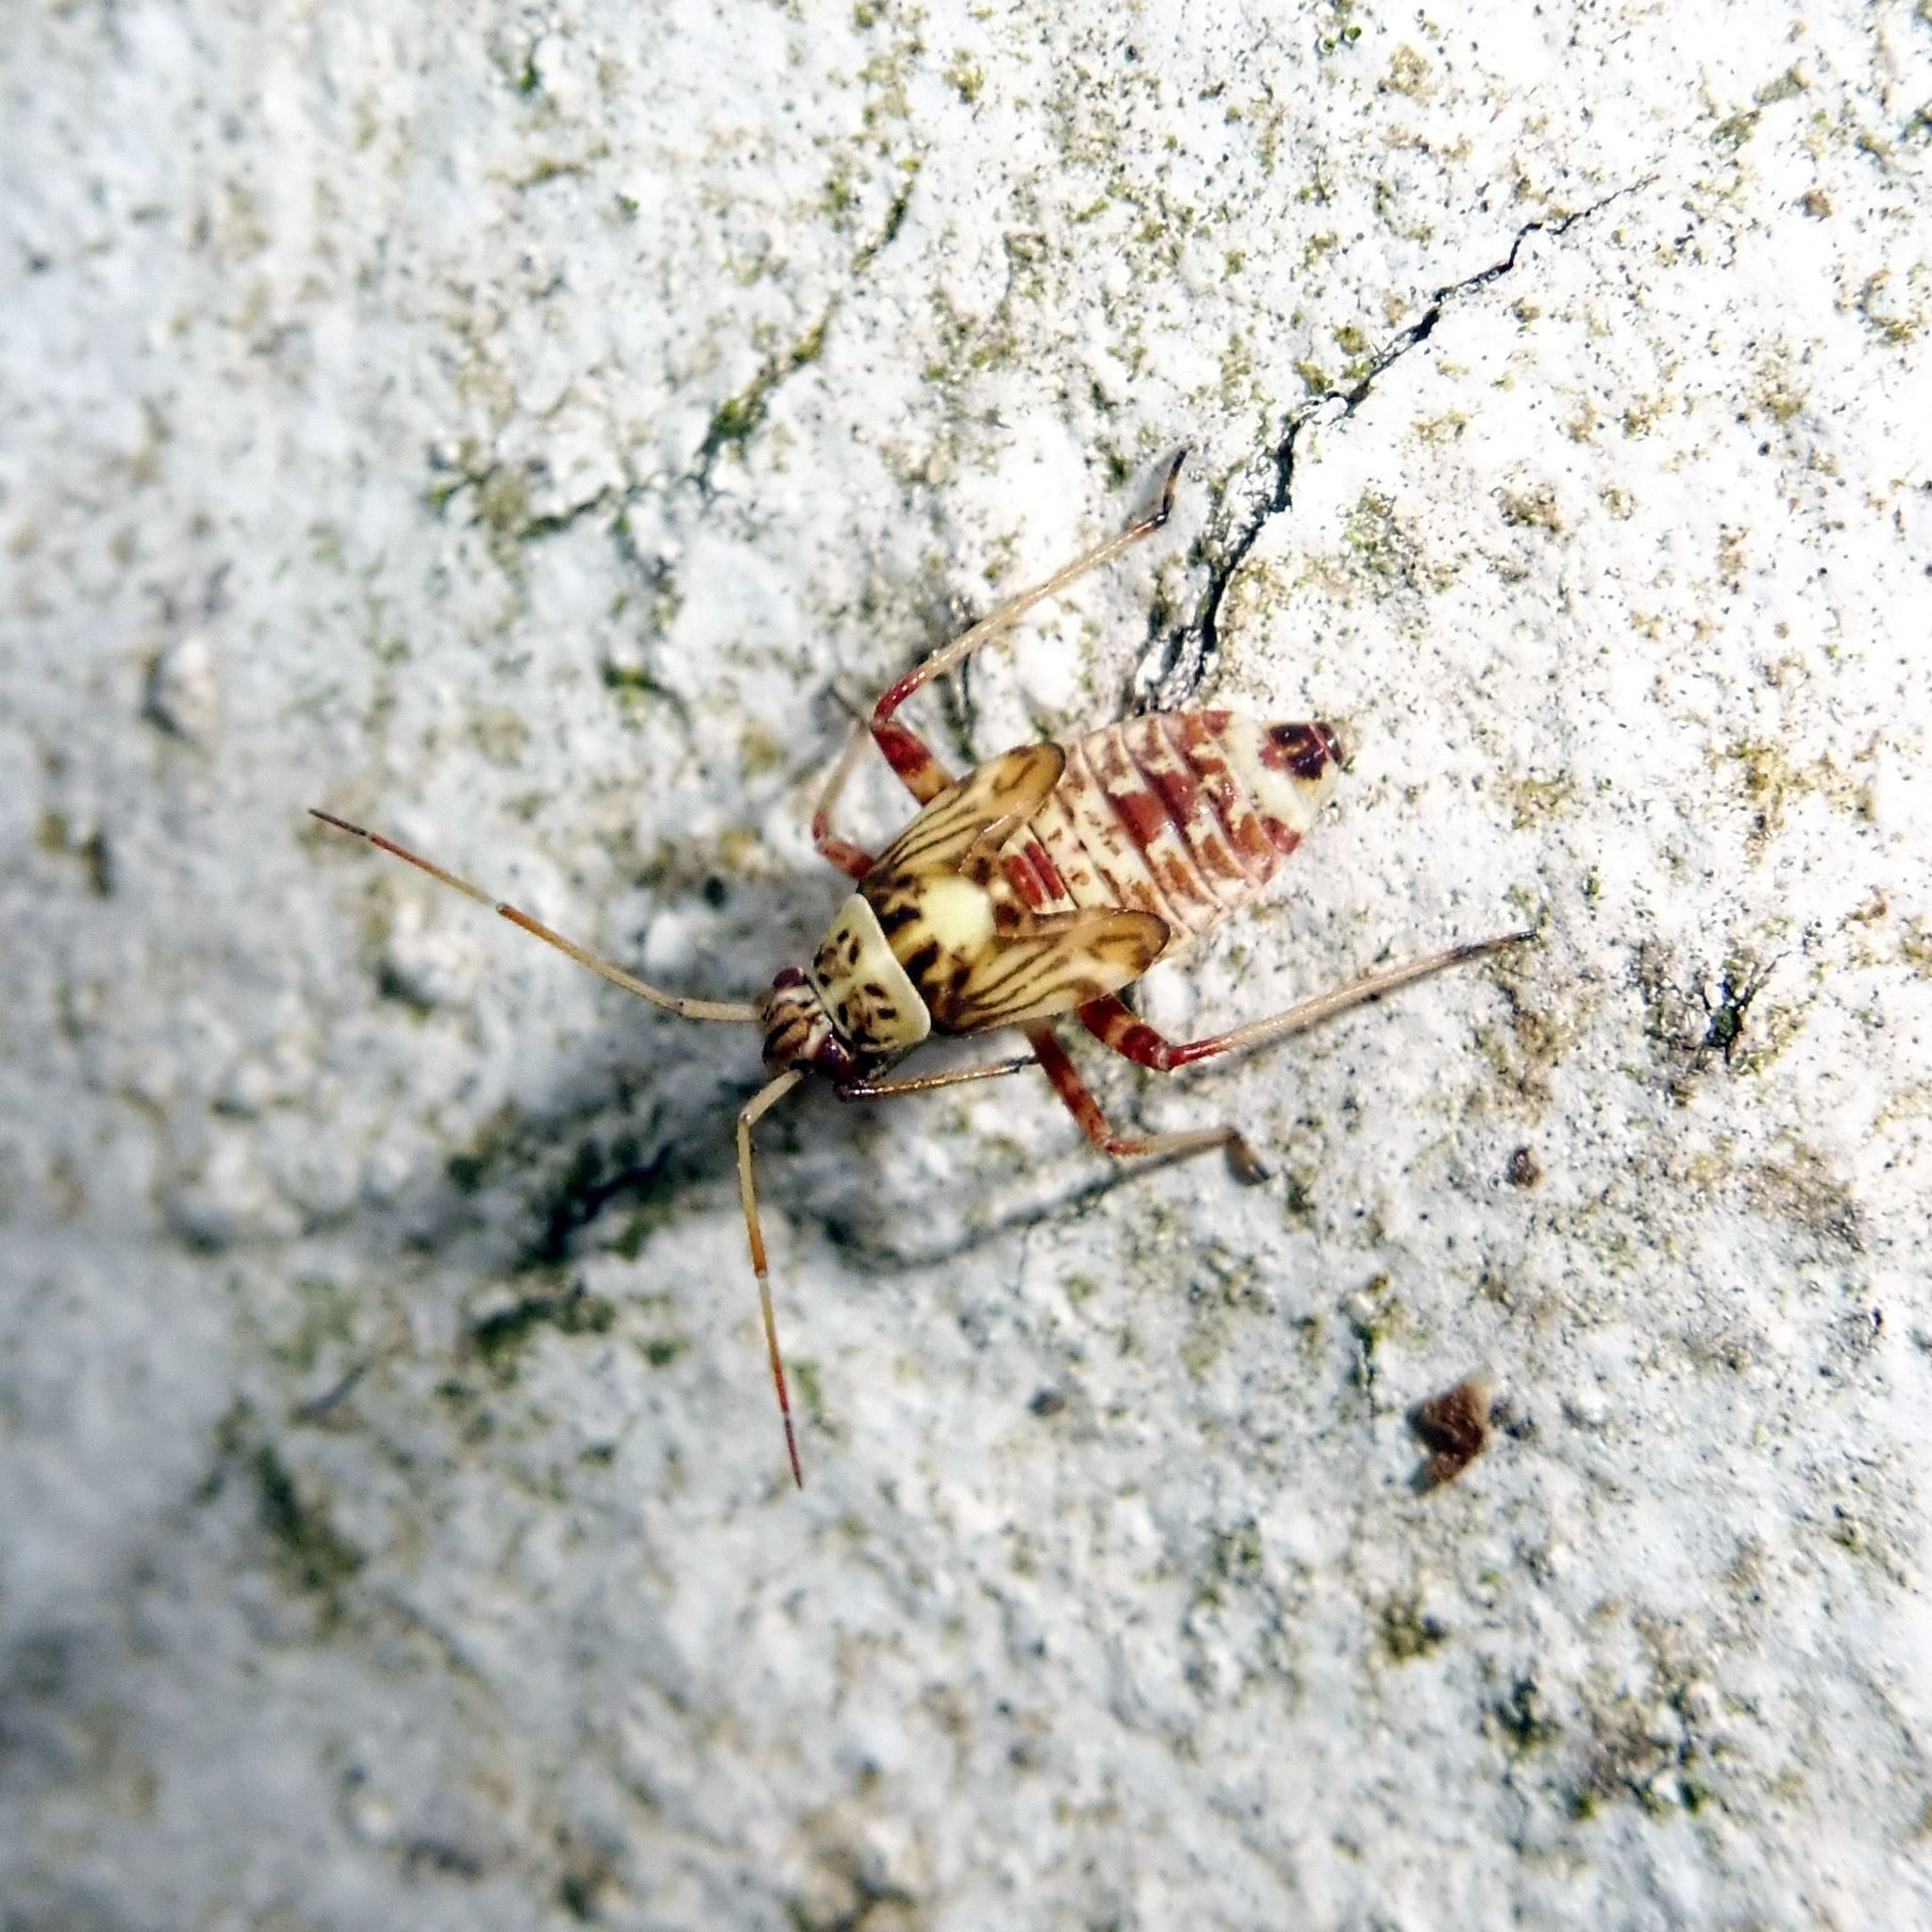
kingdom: Animalia
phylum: Arthropoda
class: Insecta
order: Hemiptera
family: Miridae
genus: Rhabdomiris
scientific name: Rhabdomiris striatellus
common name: Plant bug
